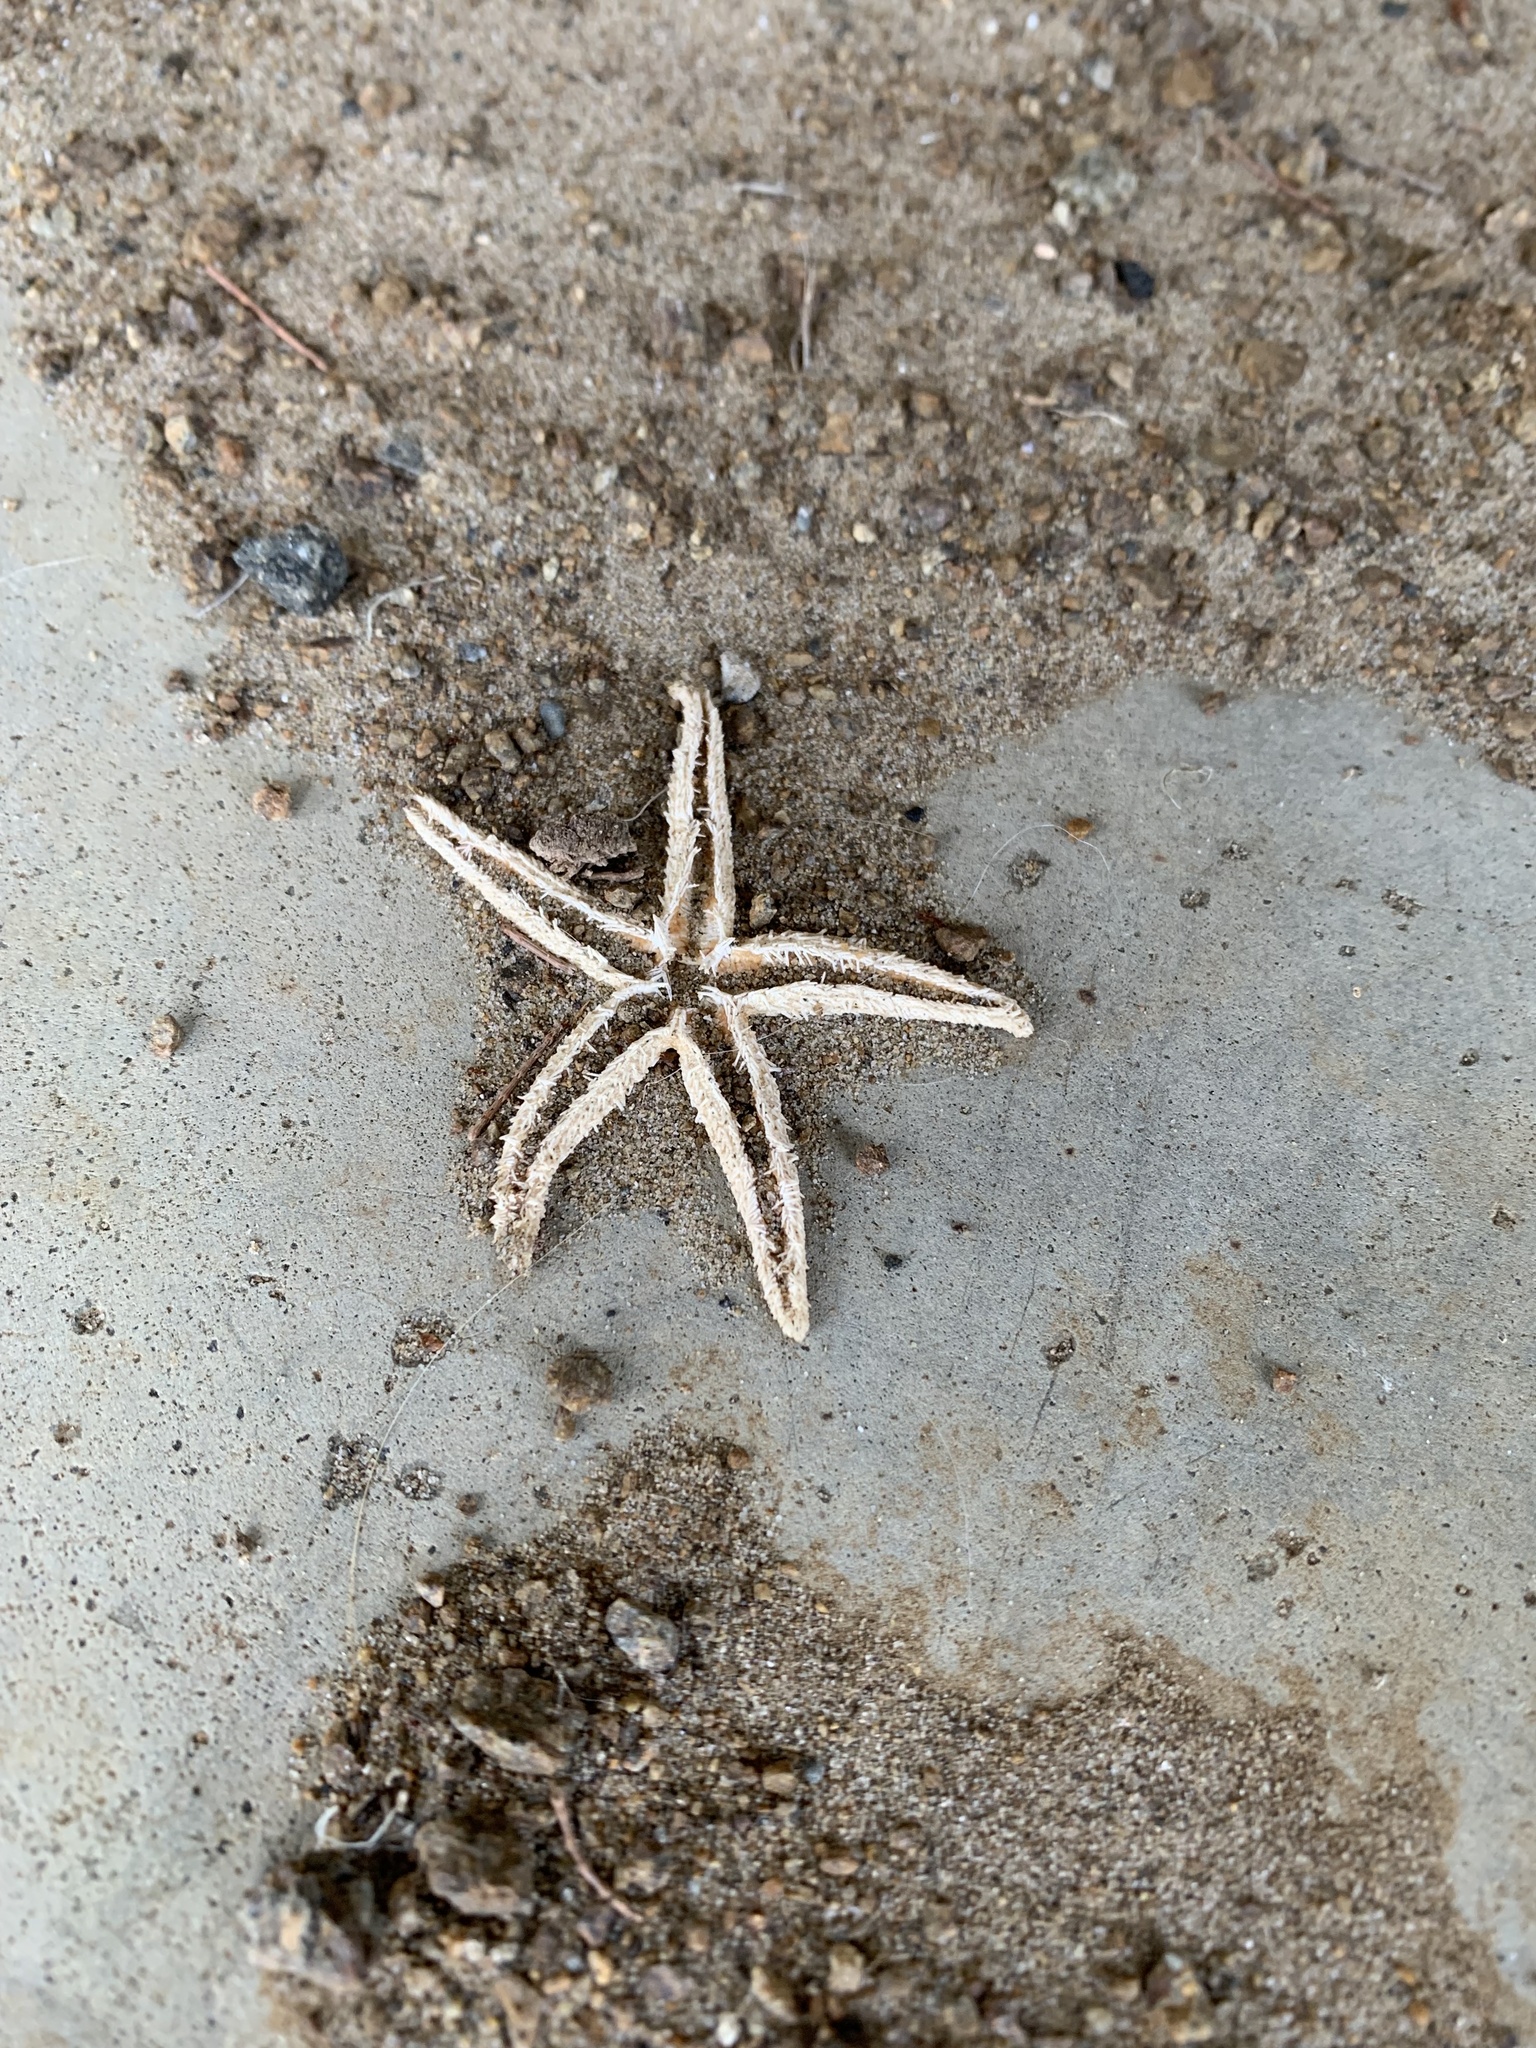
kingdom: Animalia
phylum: Echinodermata
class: Asteroidea
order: Forcipulatida
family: Asteriidae
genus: Asterias
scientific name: Asterias amurensis
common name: Flat-bottomed star
